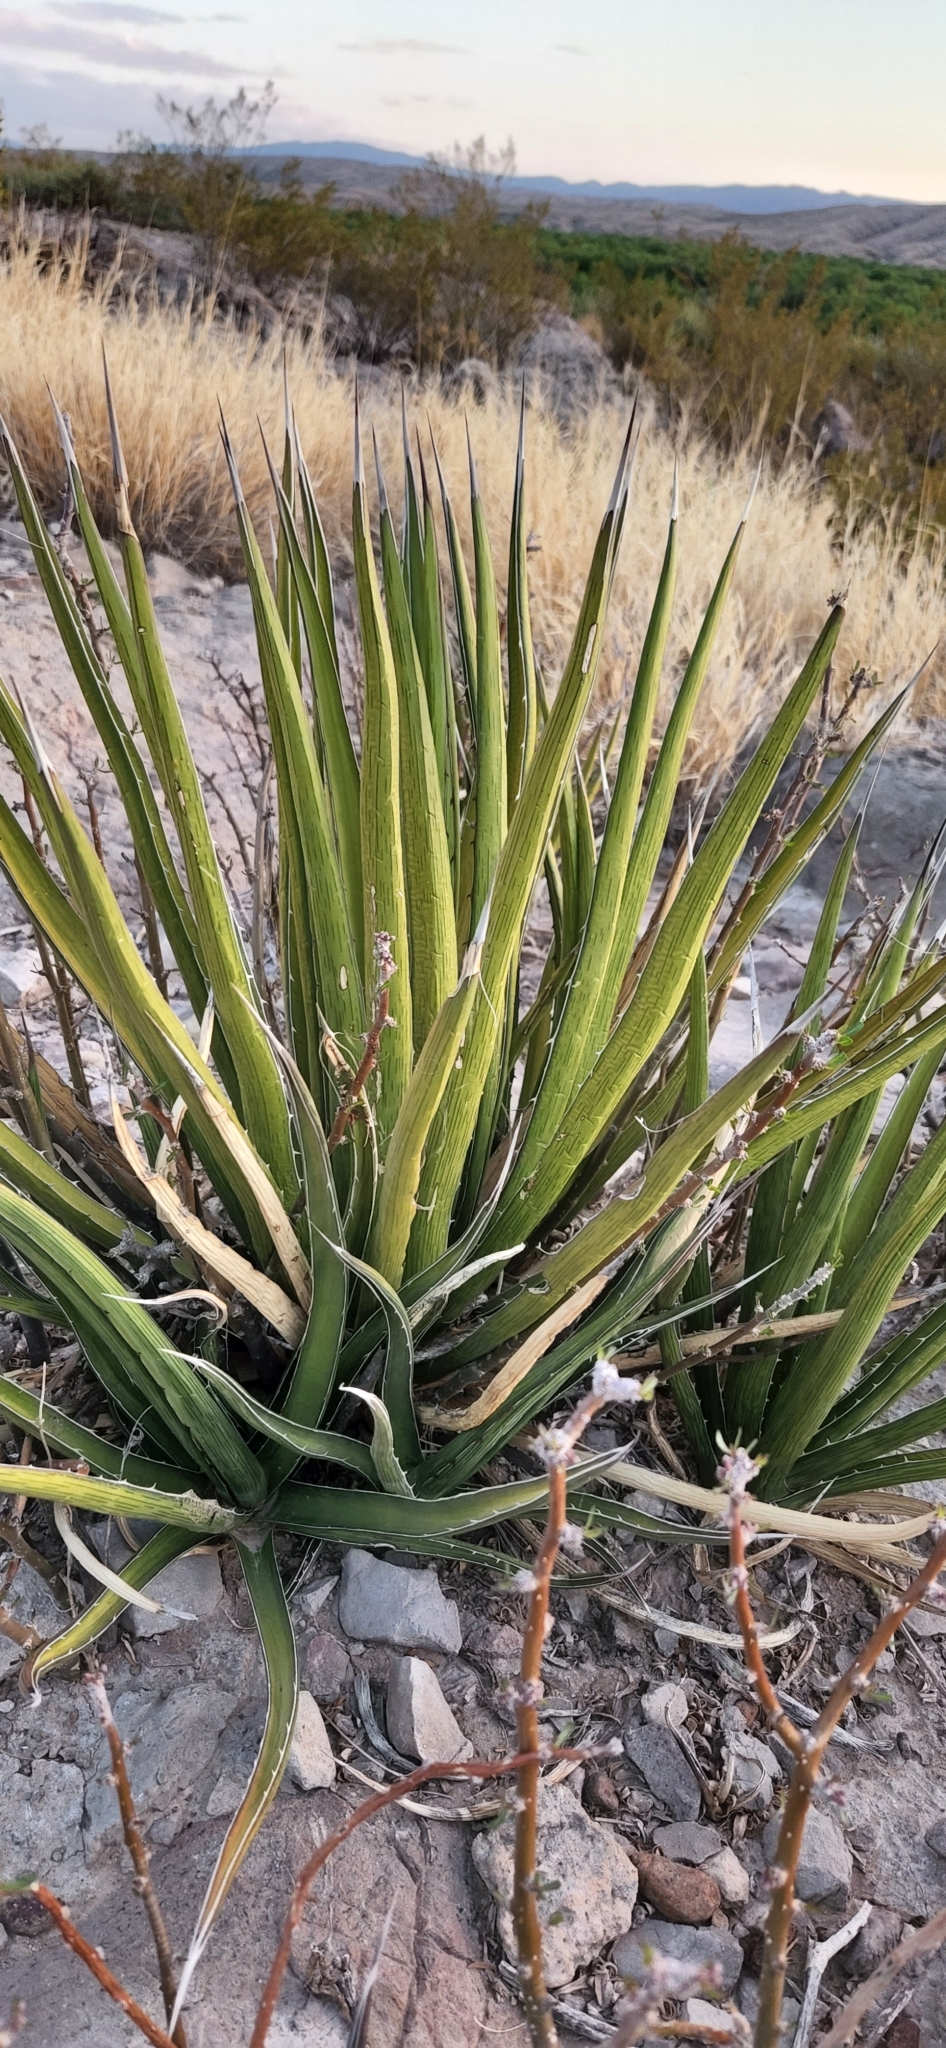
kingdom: Plantae
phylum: Tracheophyta
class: Liliopsida
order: Asparagales
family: Asparagaceae
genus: Agave
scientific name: Agave lechuguilla
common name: Lecheguilla agave
